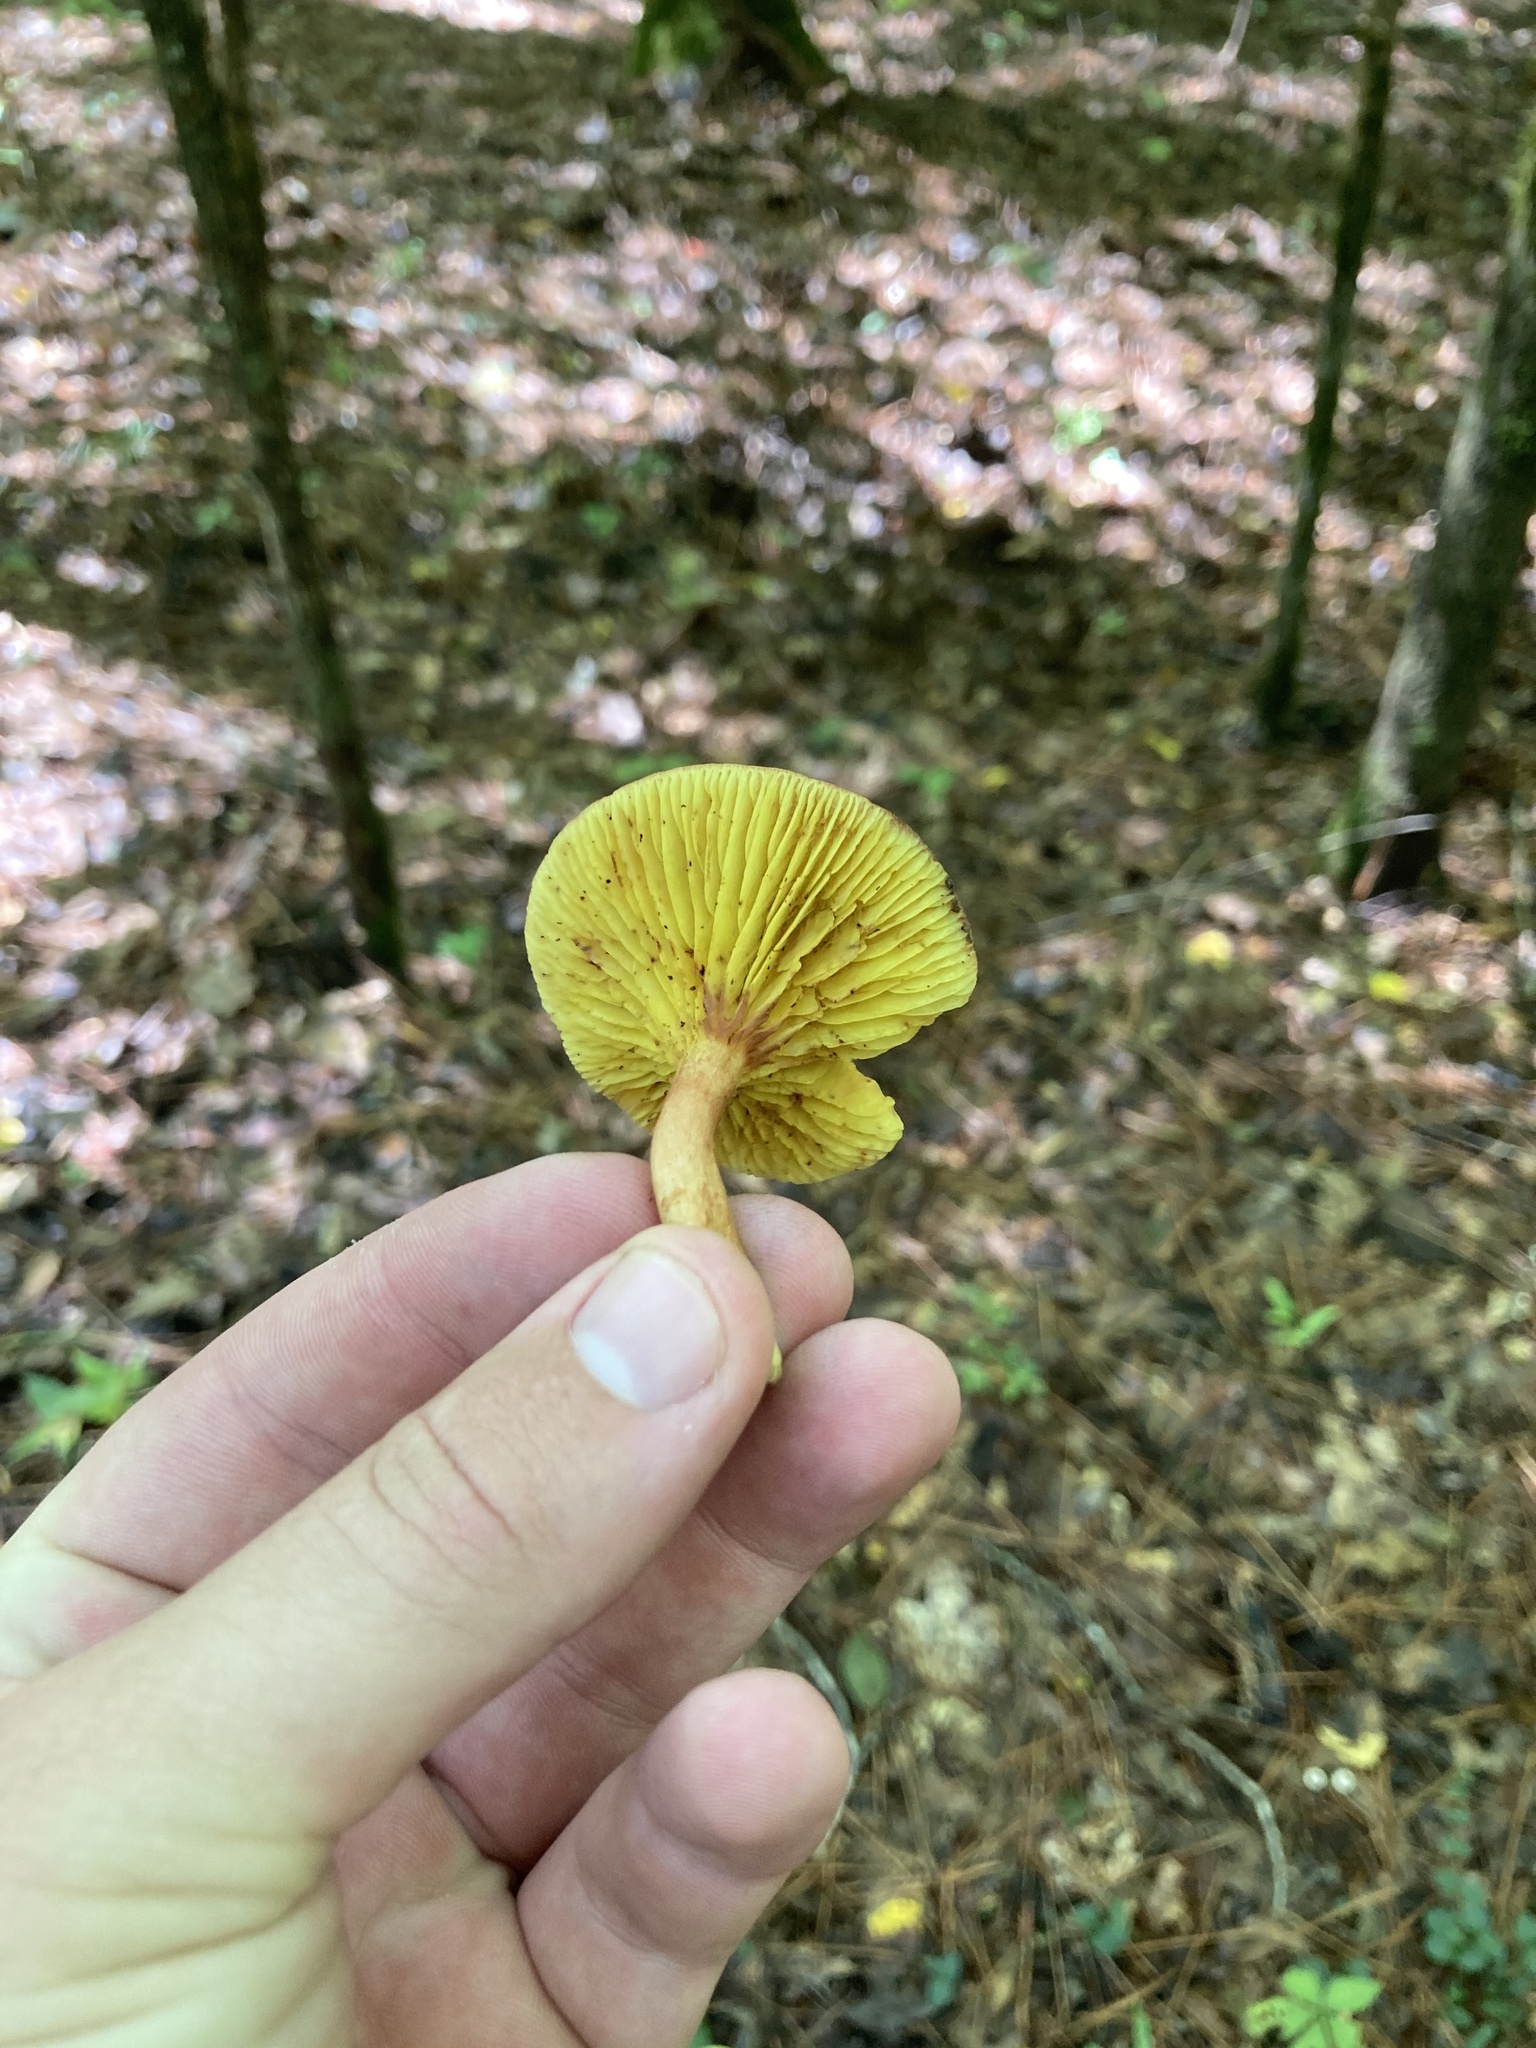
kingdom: Fungi
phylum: Basidiomycota
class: Agaricomycetes
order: Boletales
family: Boletaceae
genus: Phylloporus
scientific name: Phylloporus rhodoxanthus
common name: Golden gilled bolete
